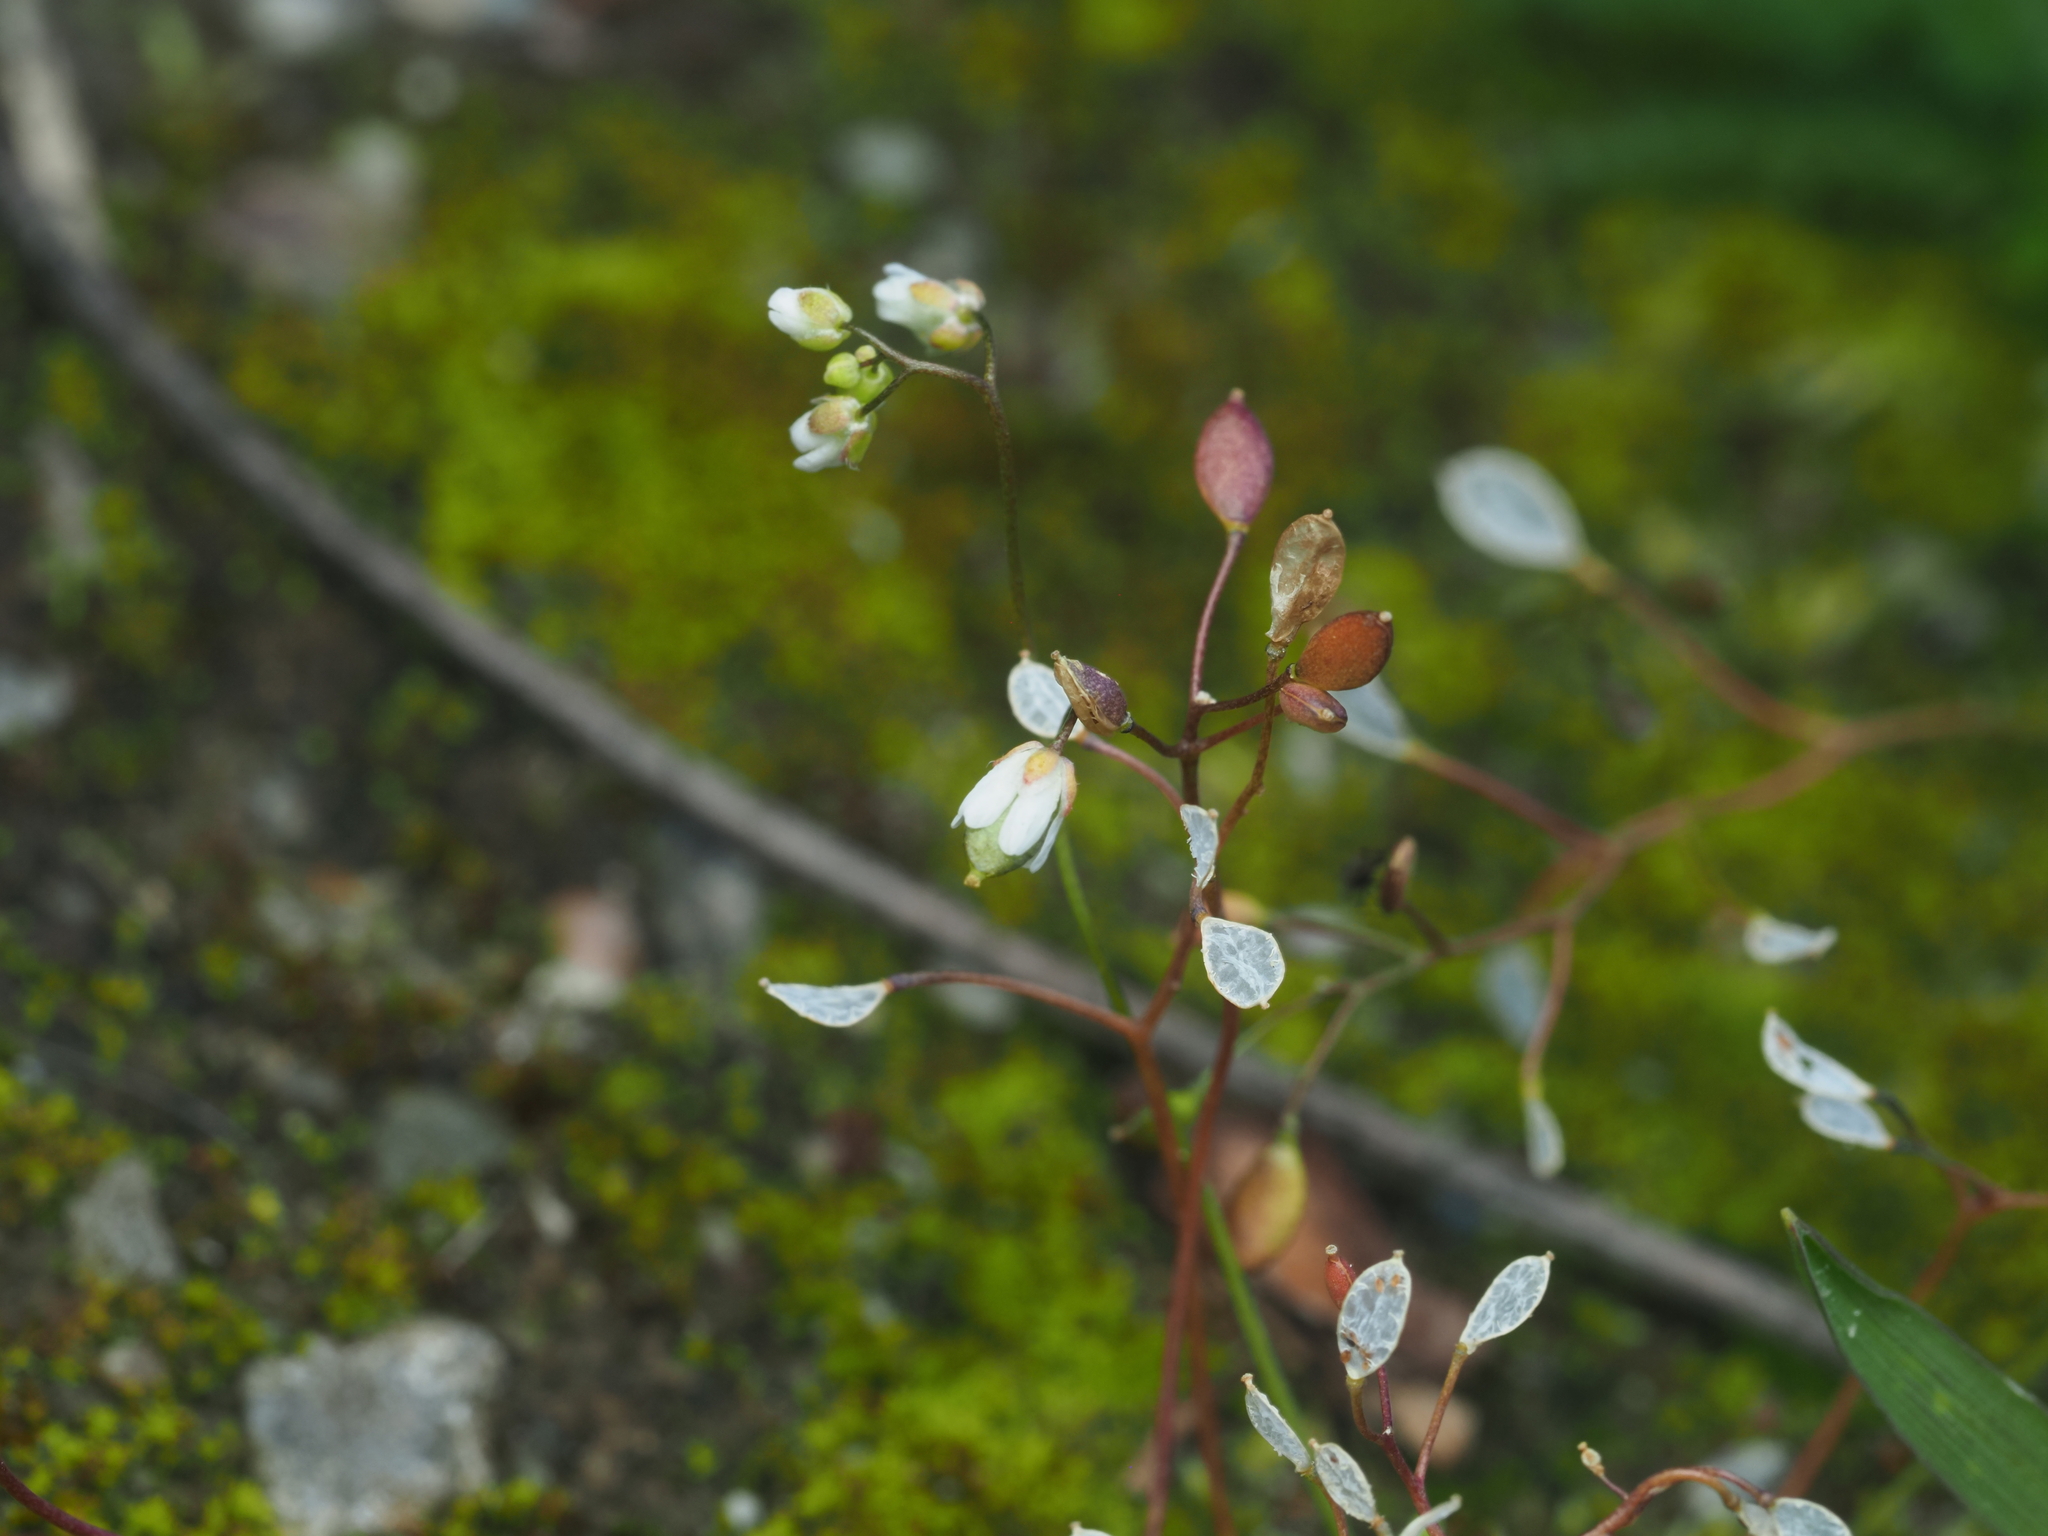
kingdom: Plantae
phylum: Tracheophyta
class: Magnoliopsida
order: Brassicales
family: Brassicaceae
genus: Draba
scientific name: Draba verna
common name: Spring draba
